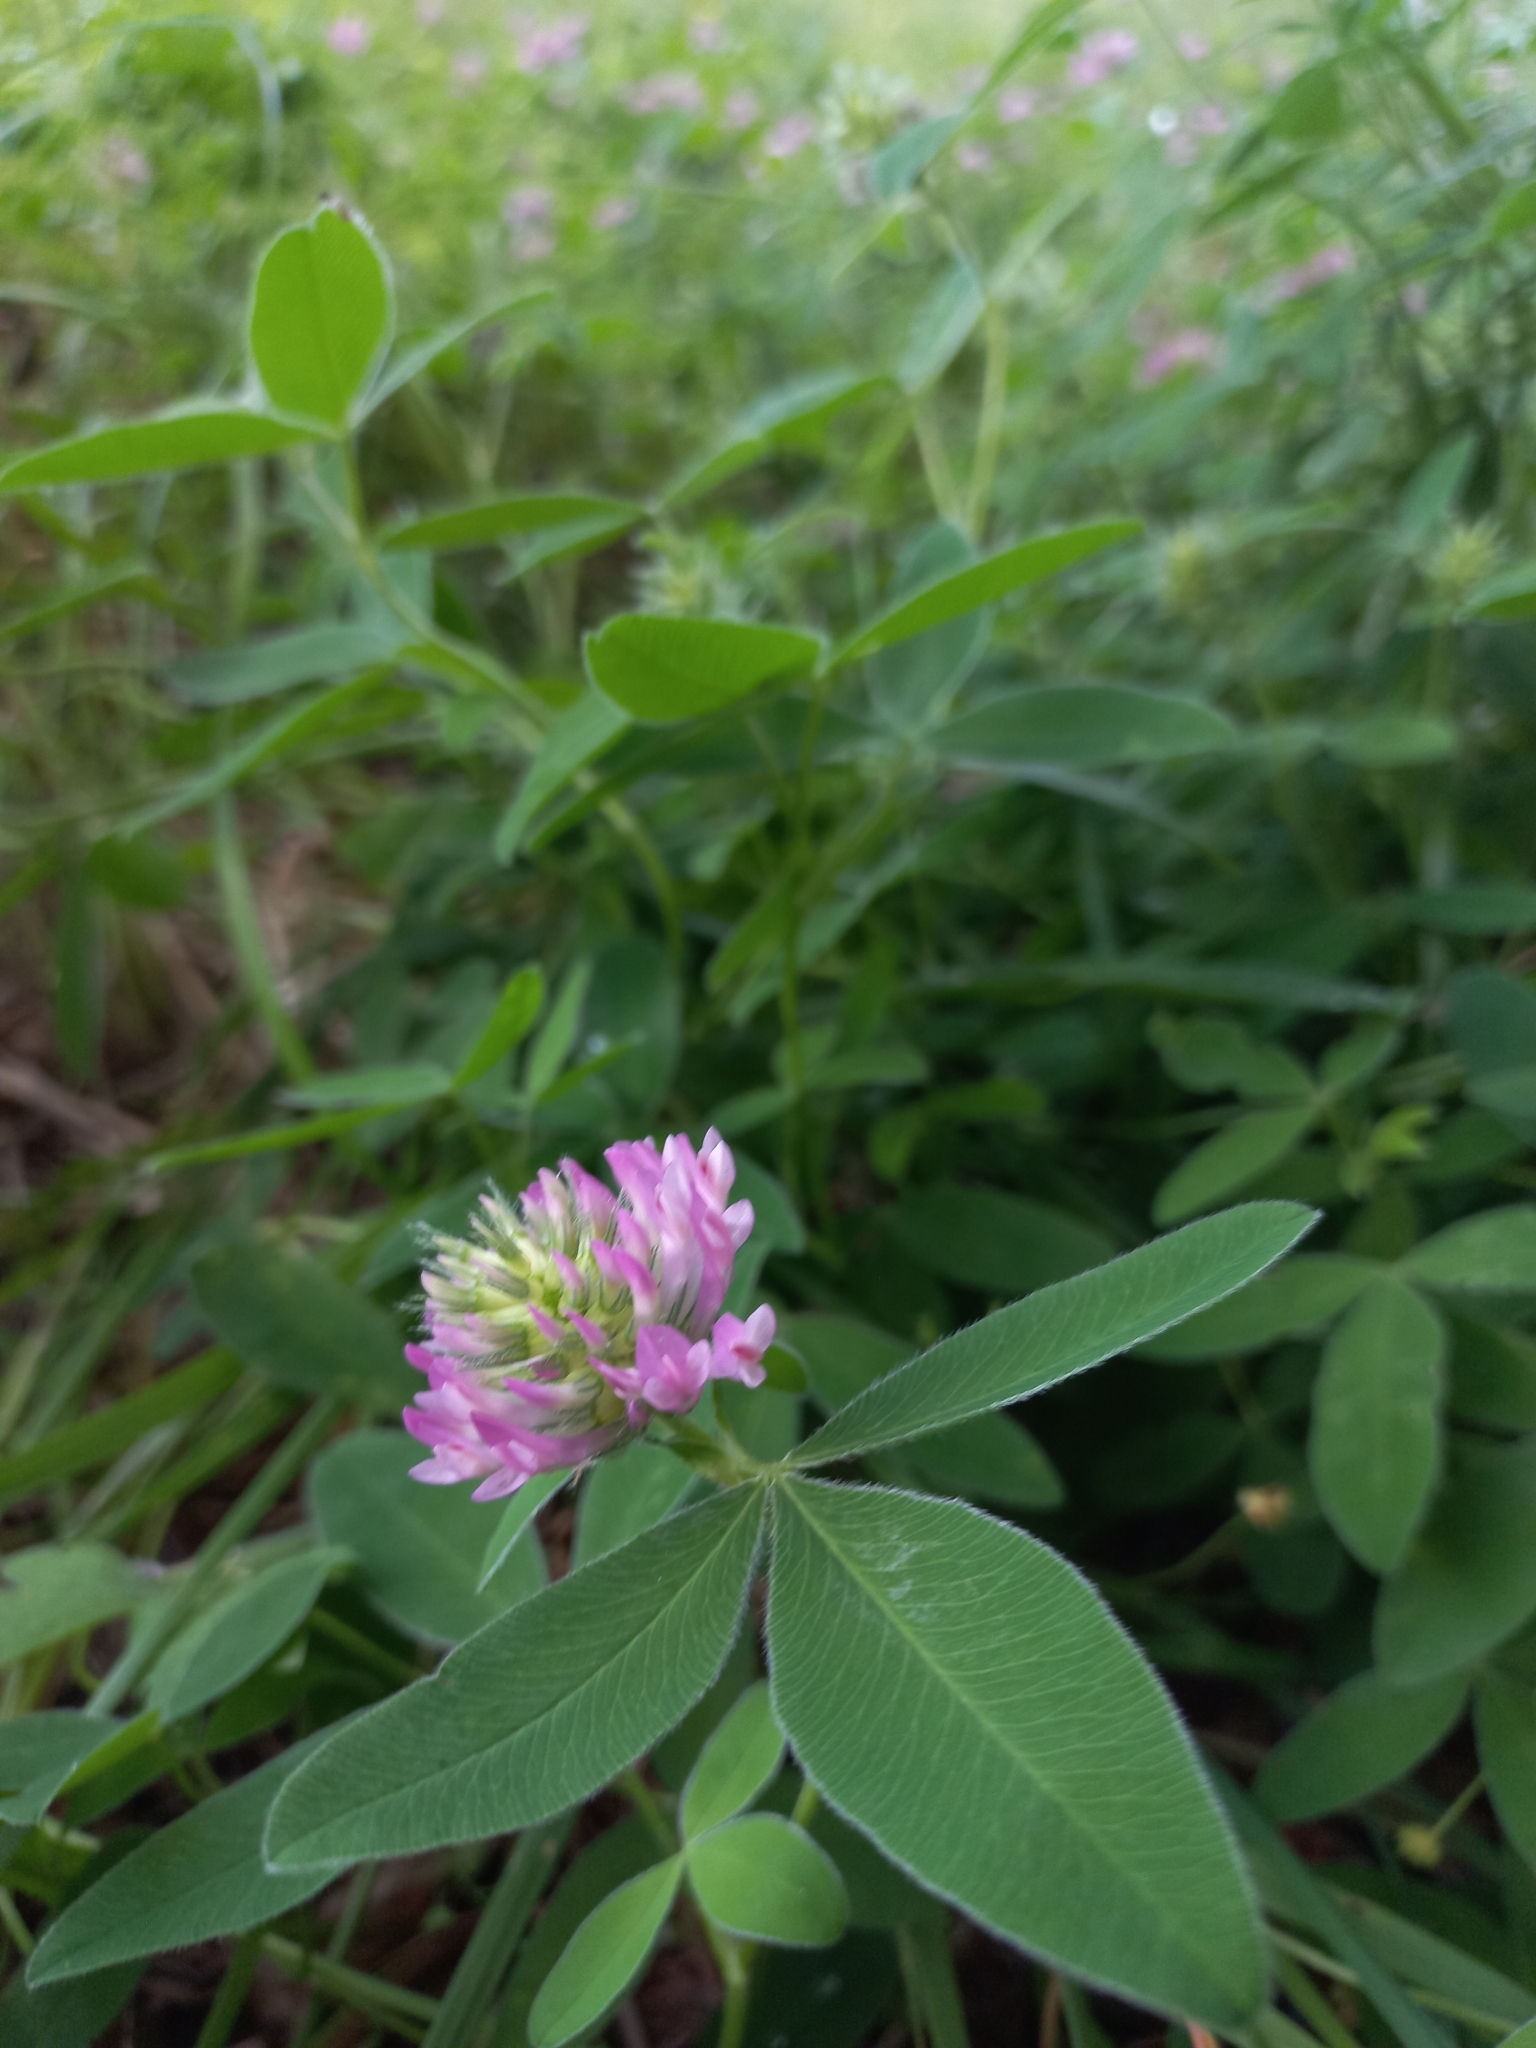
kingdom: Plantae
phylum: Tracheophyta
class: Magnoliopsida
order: Fabales
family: Fabaceae
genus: Trifolium
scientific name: Trifolium medium
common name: Zigzag clover
